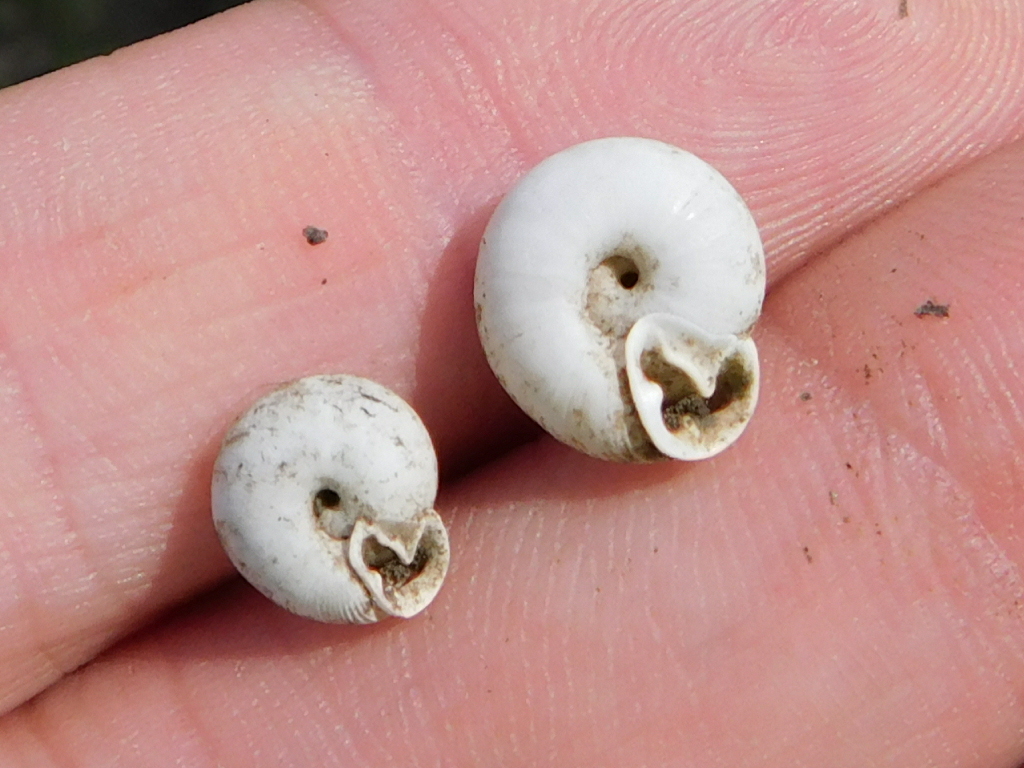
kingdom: Animalia
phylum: Mollusca
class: Gastropoda
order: Stylommatophora
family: Polygyridae
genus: Linisa
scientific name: Linisa texasiana
